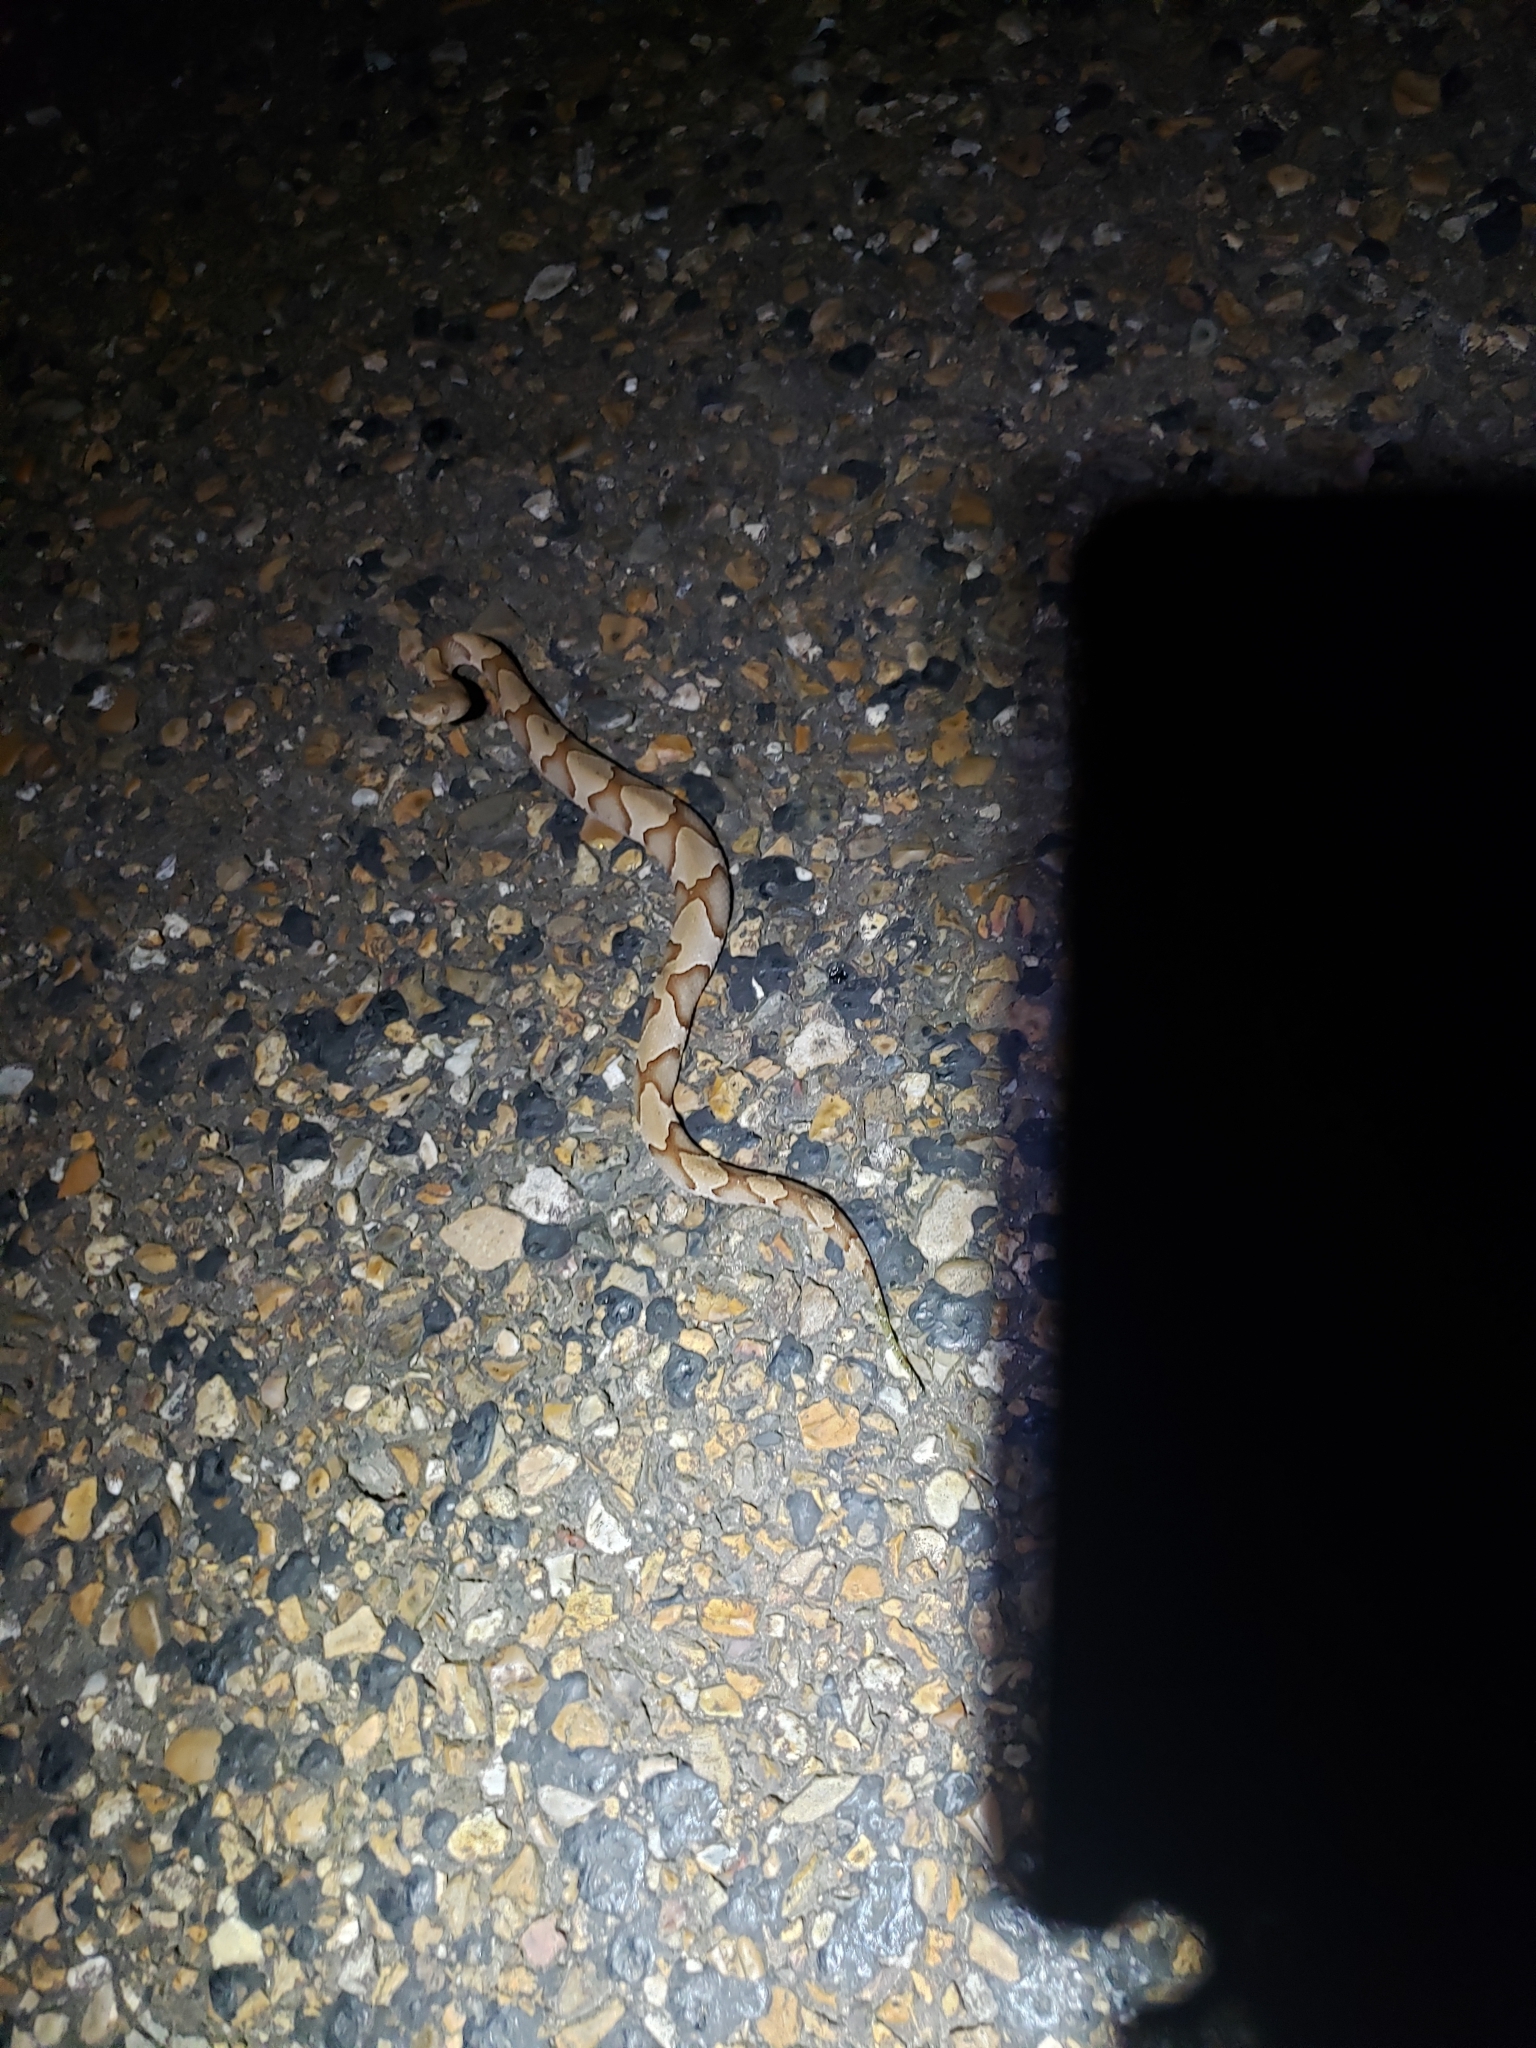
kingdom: Animalia
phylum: Chordata
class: Squamata
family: Viperidae
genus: Agkistrodon
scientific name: Agkistrodon contortrix
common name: Northern copperhead
